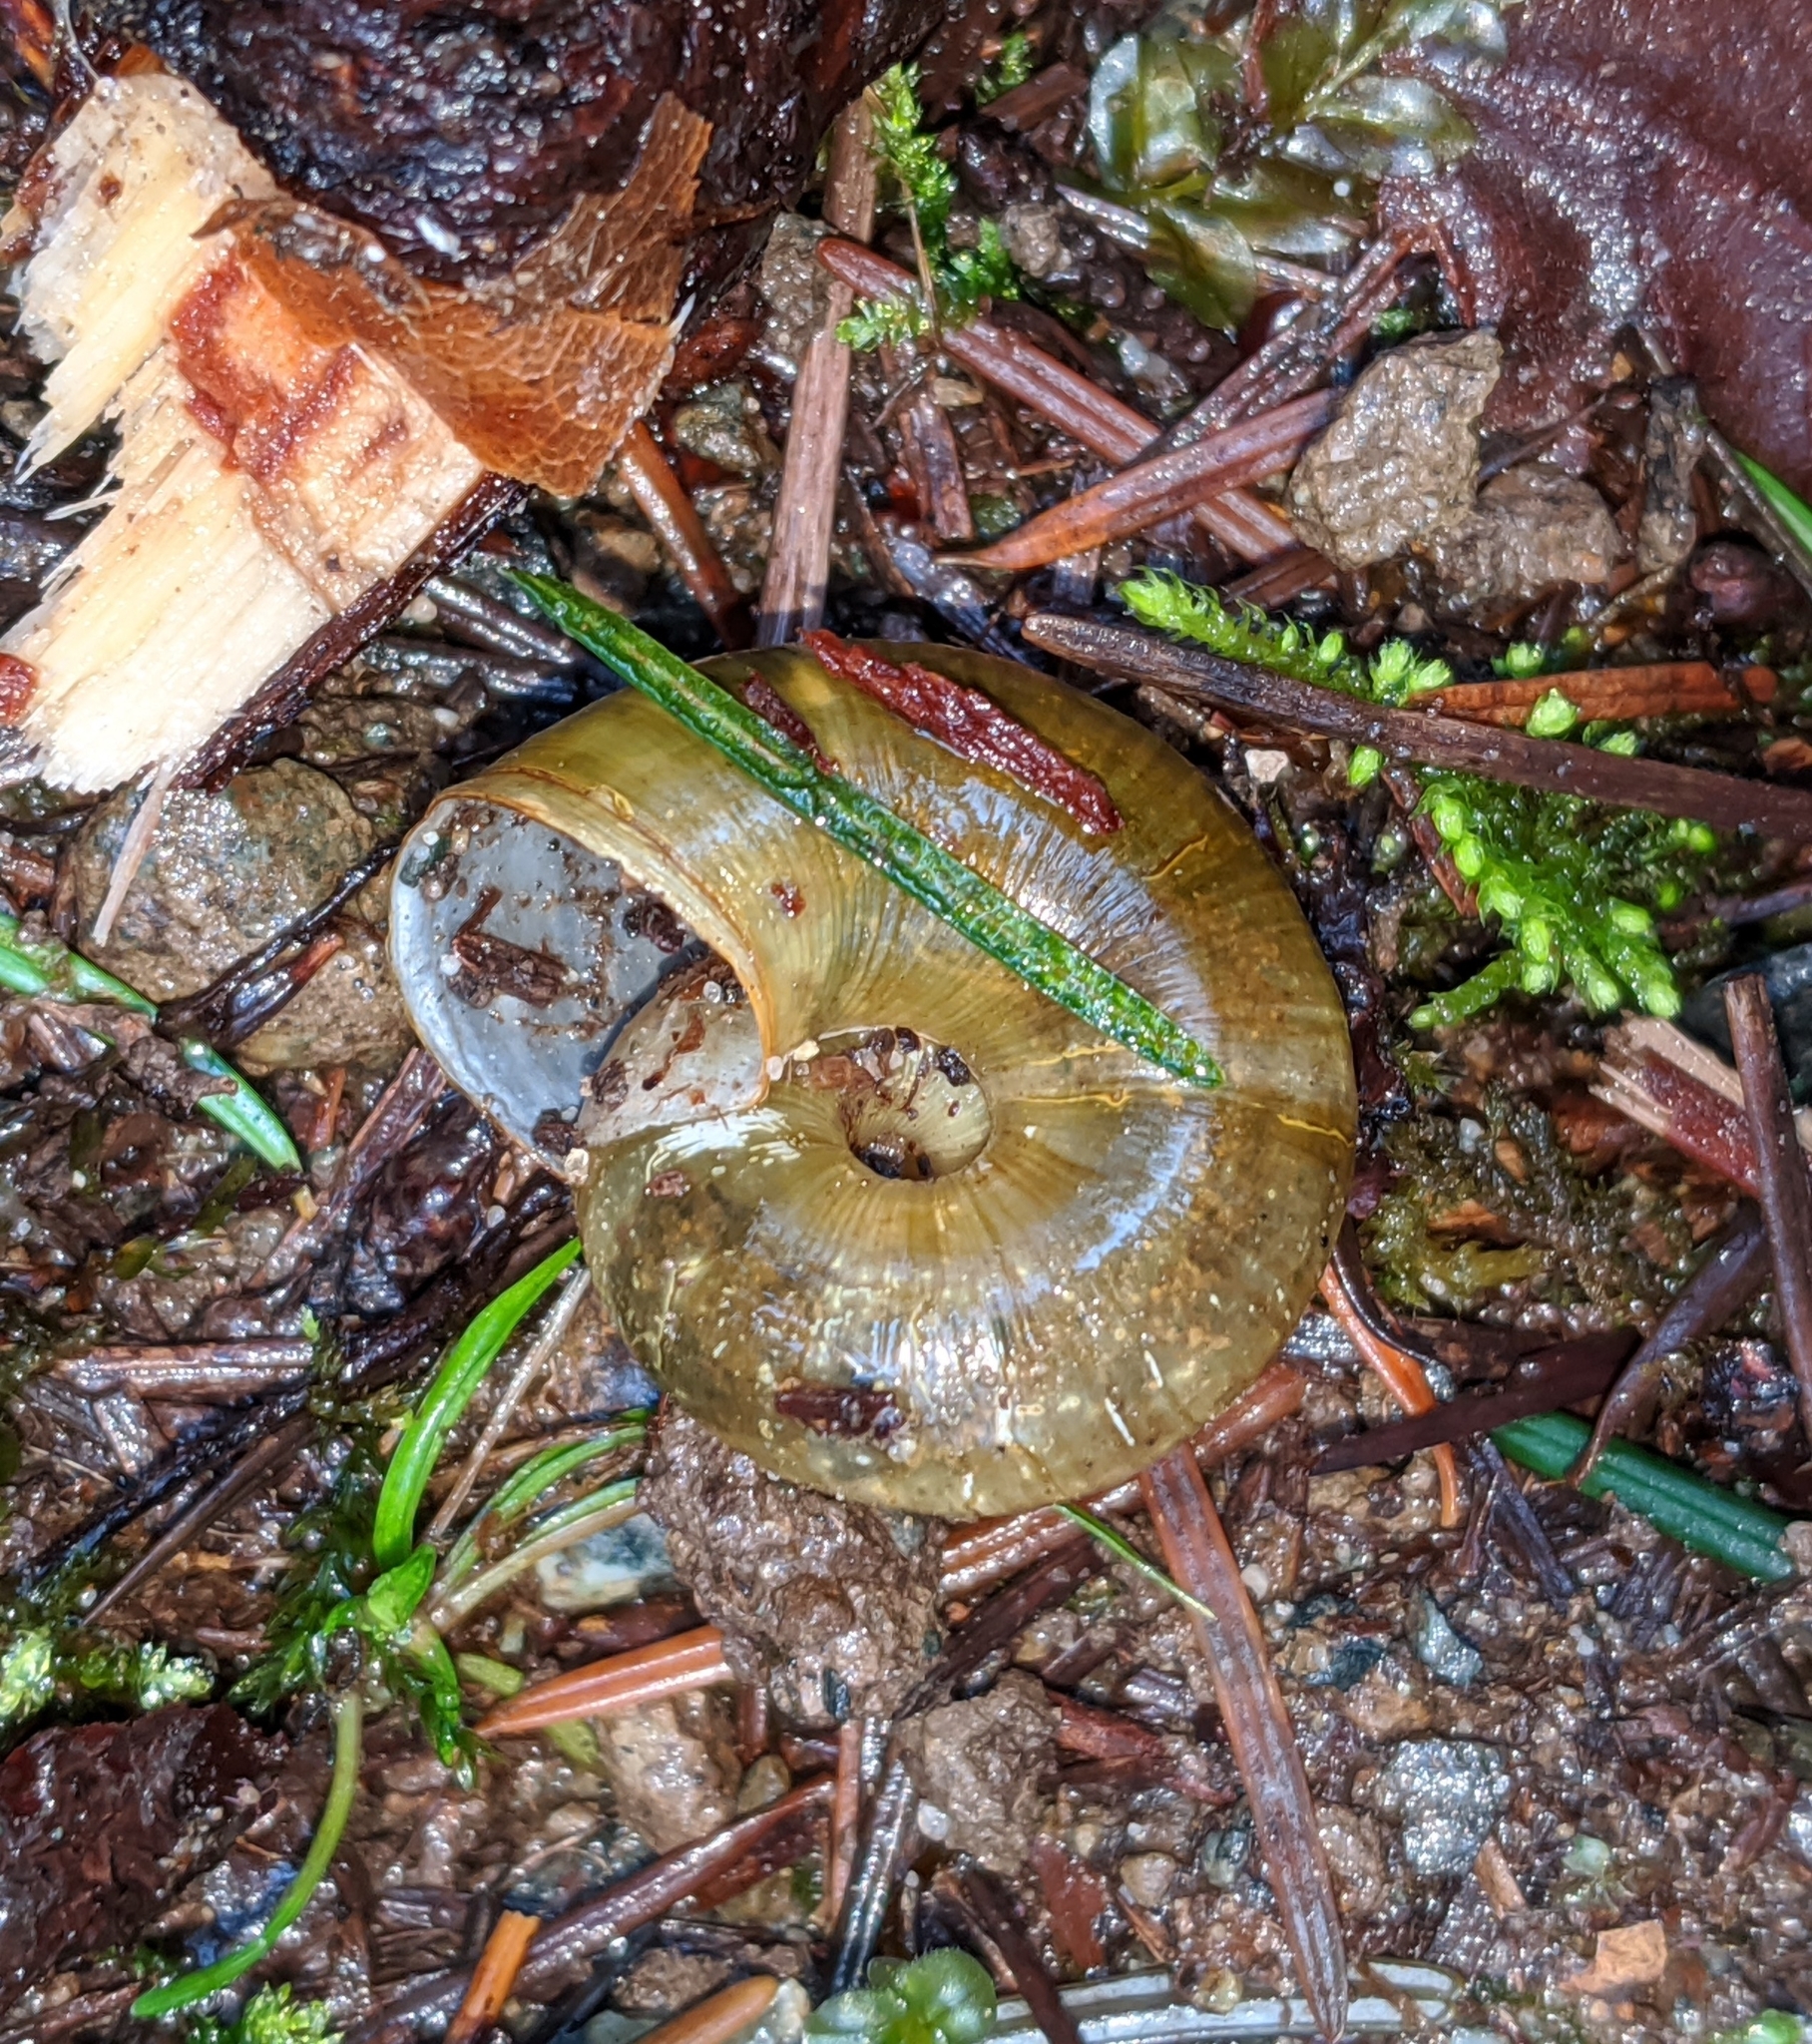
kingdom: Animalia
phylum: Mollusca
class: Gastropoda
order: Stylommatophora
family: Haplotrematidae
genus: Haplotrema
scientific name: Haplotrema vancouverense
